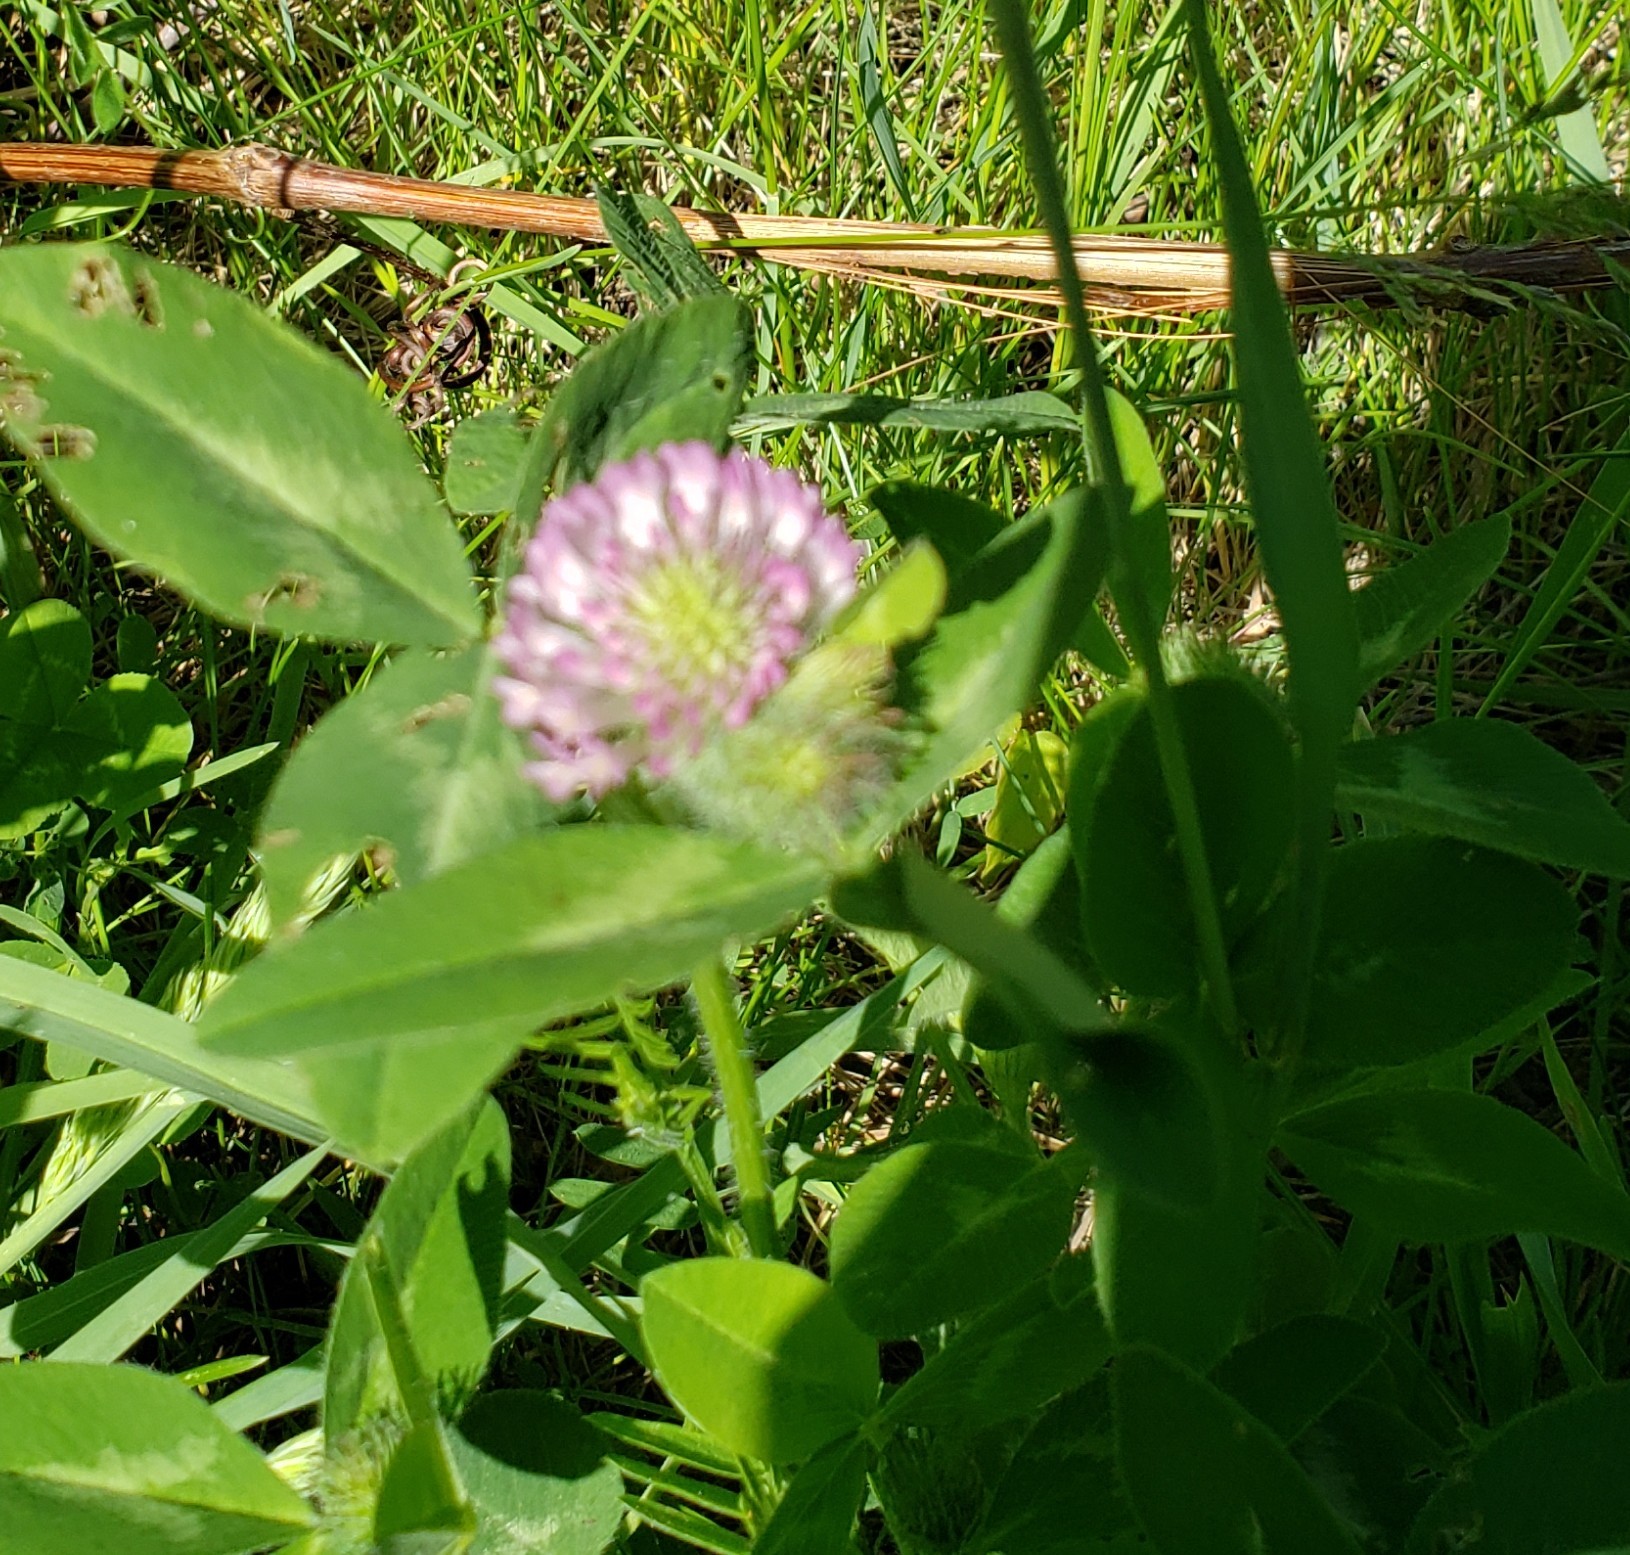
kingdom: Plantae
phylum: Tracheophyta
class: Magnoliopsida
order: Fabales
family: Fabaceae
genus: Trifolium
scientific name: Trifolium pratense
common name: Red clover
